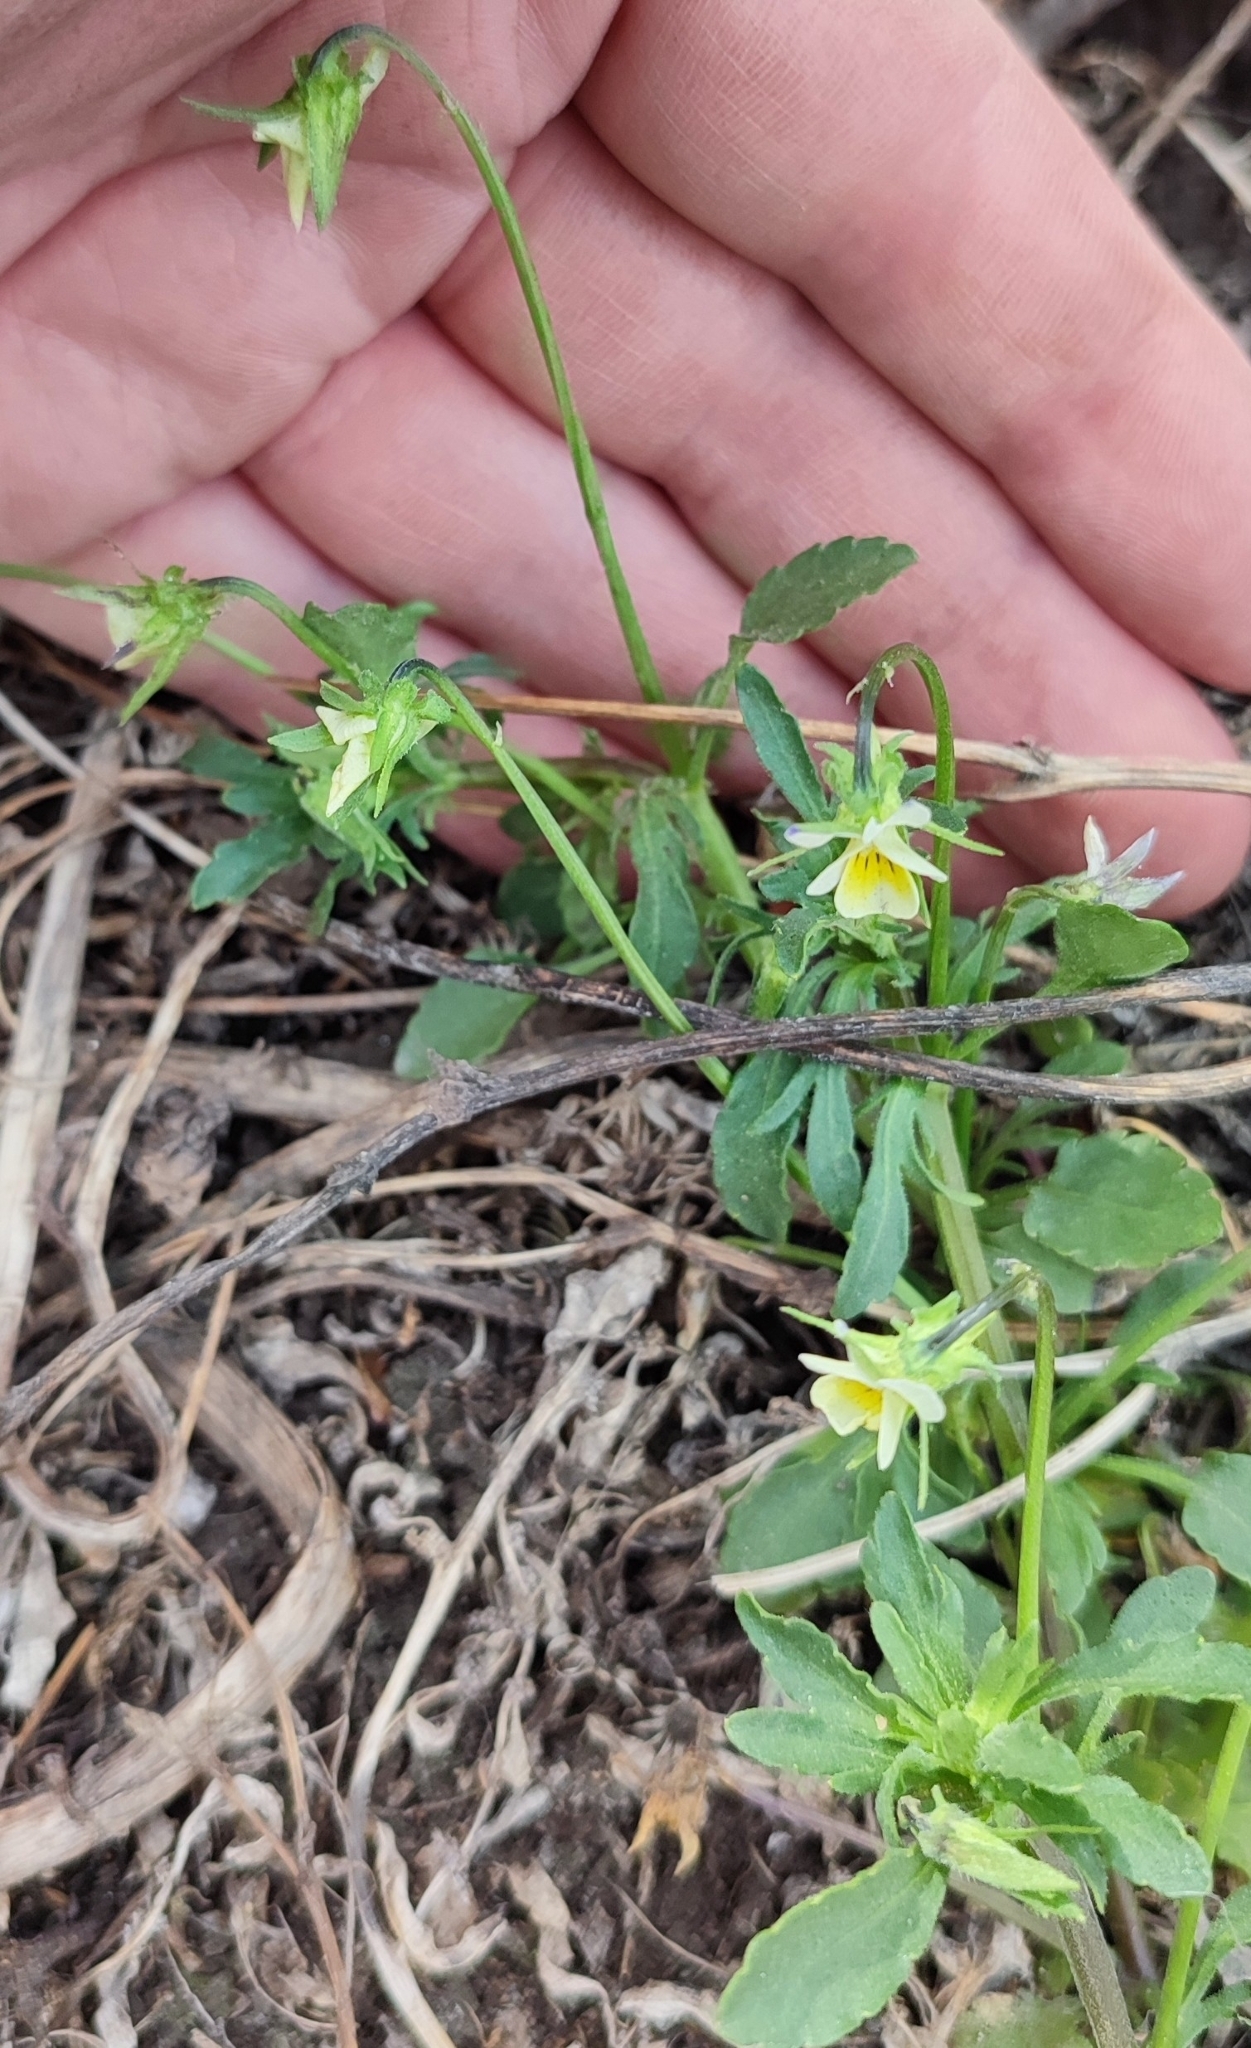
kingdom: Plantae
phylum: Tracheophyta
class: Magnoliopsida
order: Malpighiales
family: Violaceae
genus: Viola
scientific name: Viola arvensis
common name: Field pansy
